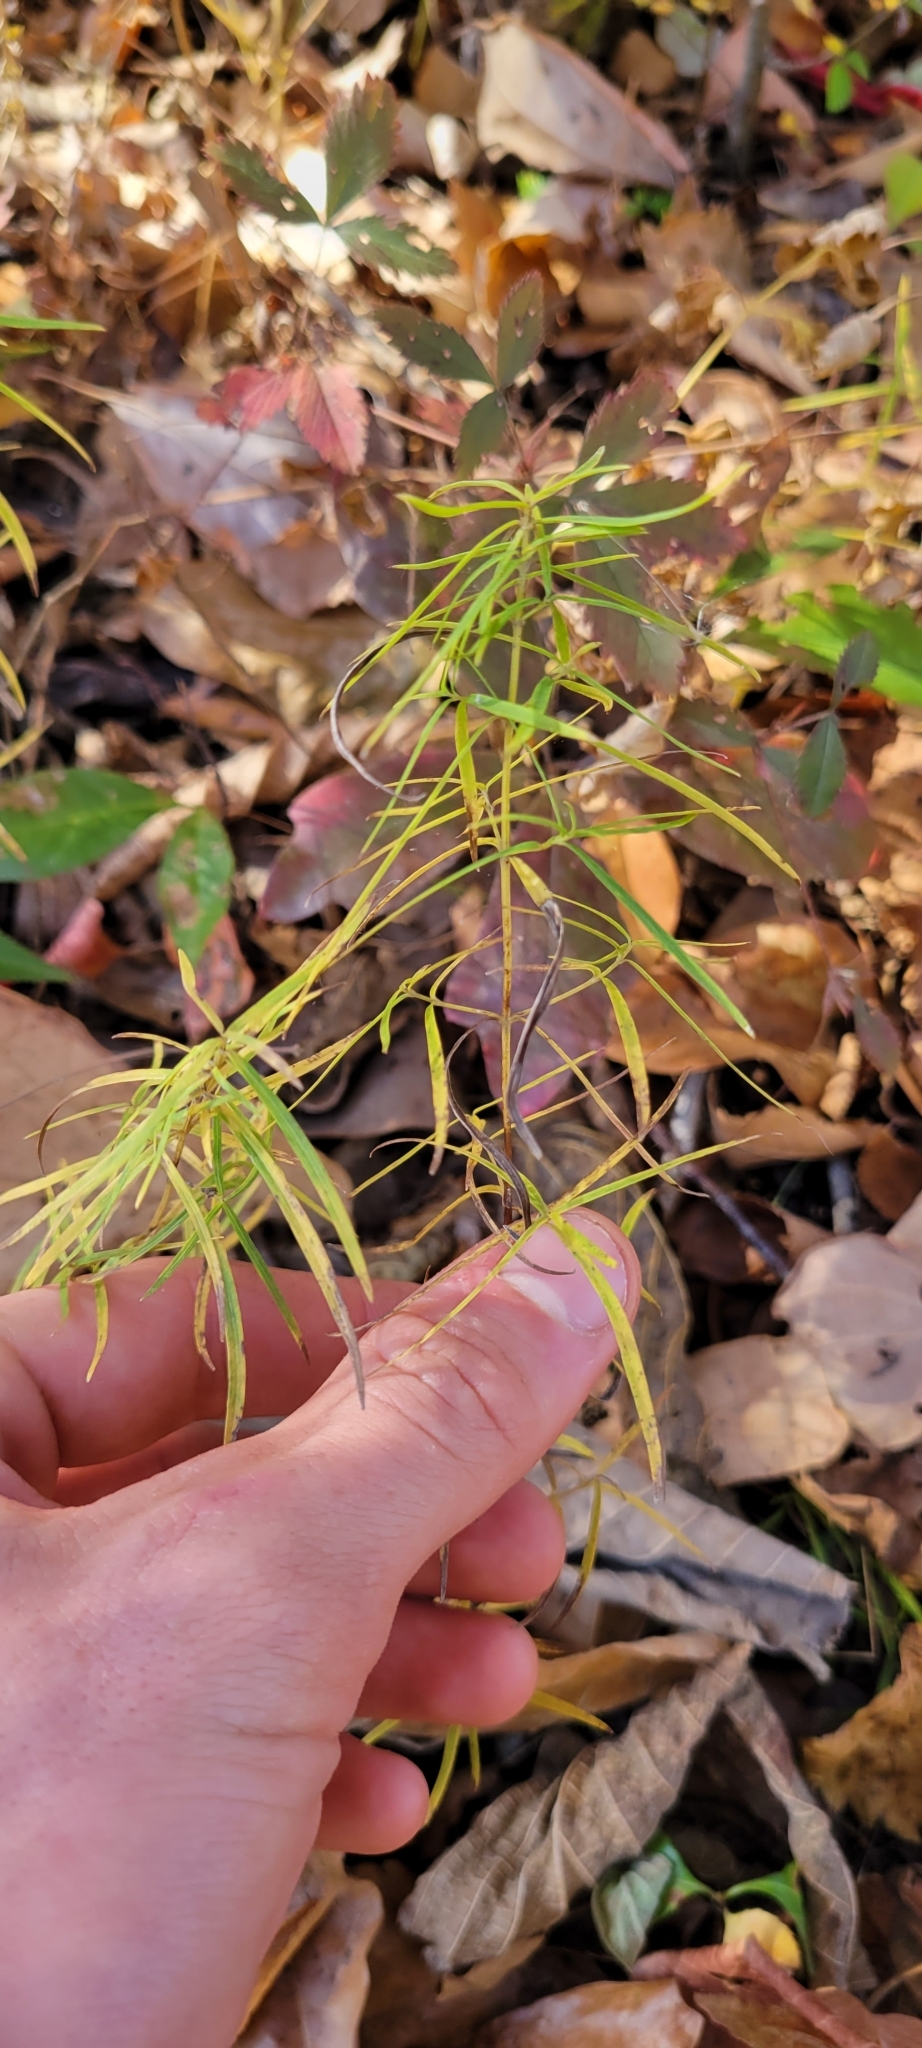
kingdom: Plantae
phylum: Tracheophyta
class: Magnoliopsida
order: Lamiales
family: Lamiaceae
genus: Pycnanthemum
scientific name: Pycnanthemum tenuifolium
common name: Narrow-leaf mountain-mint
